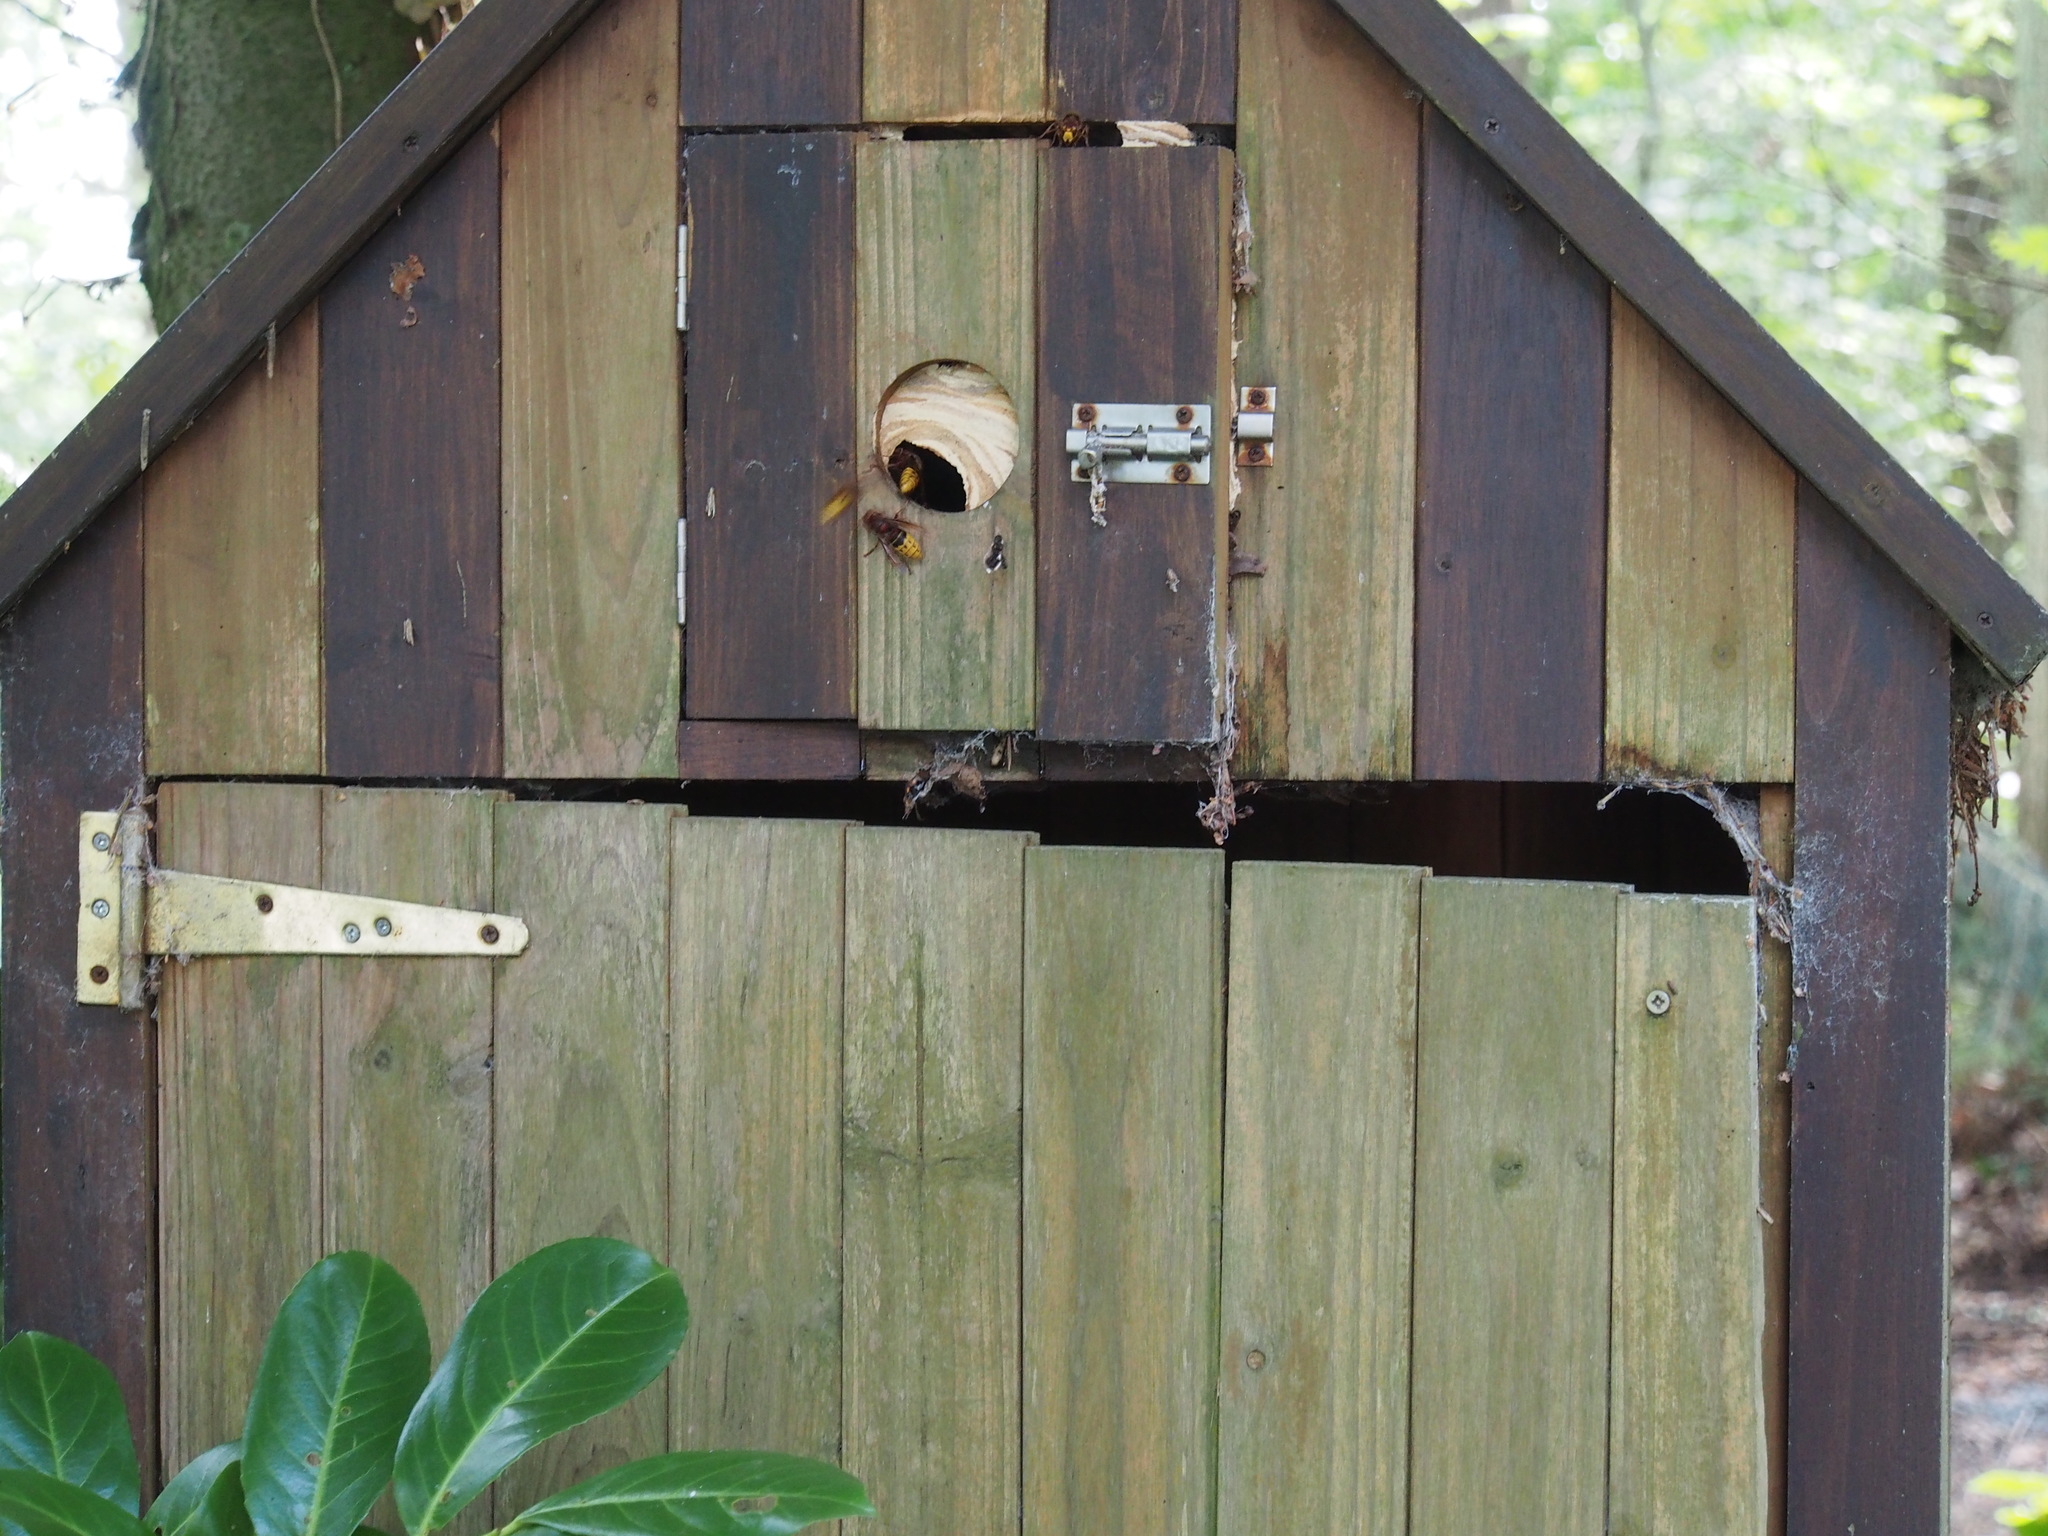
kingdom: Animalia
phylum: Arthropoda
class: Insecta
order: Hymenoptera
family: Vespidae
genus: Vespa
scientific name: Vespa crabro
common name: Hornet
